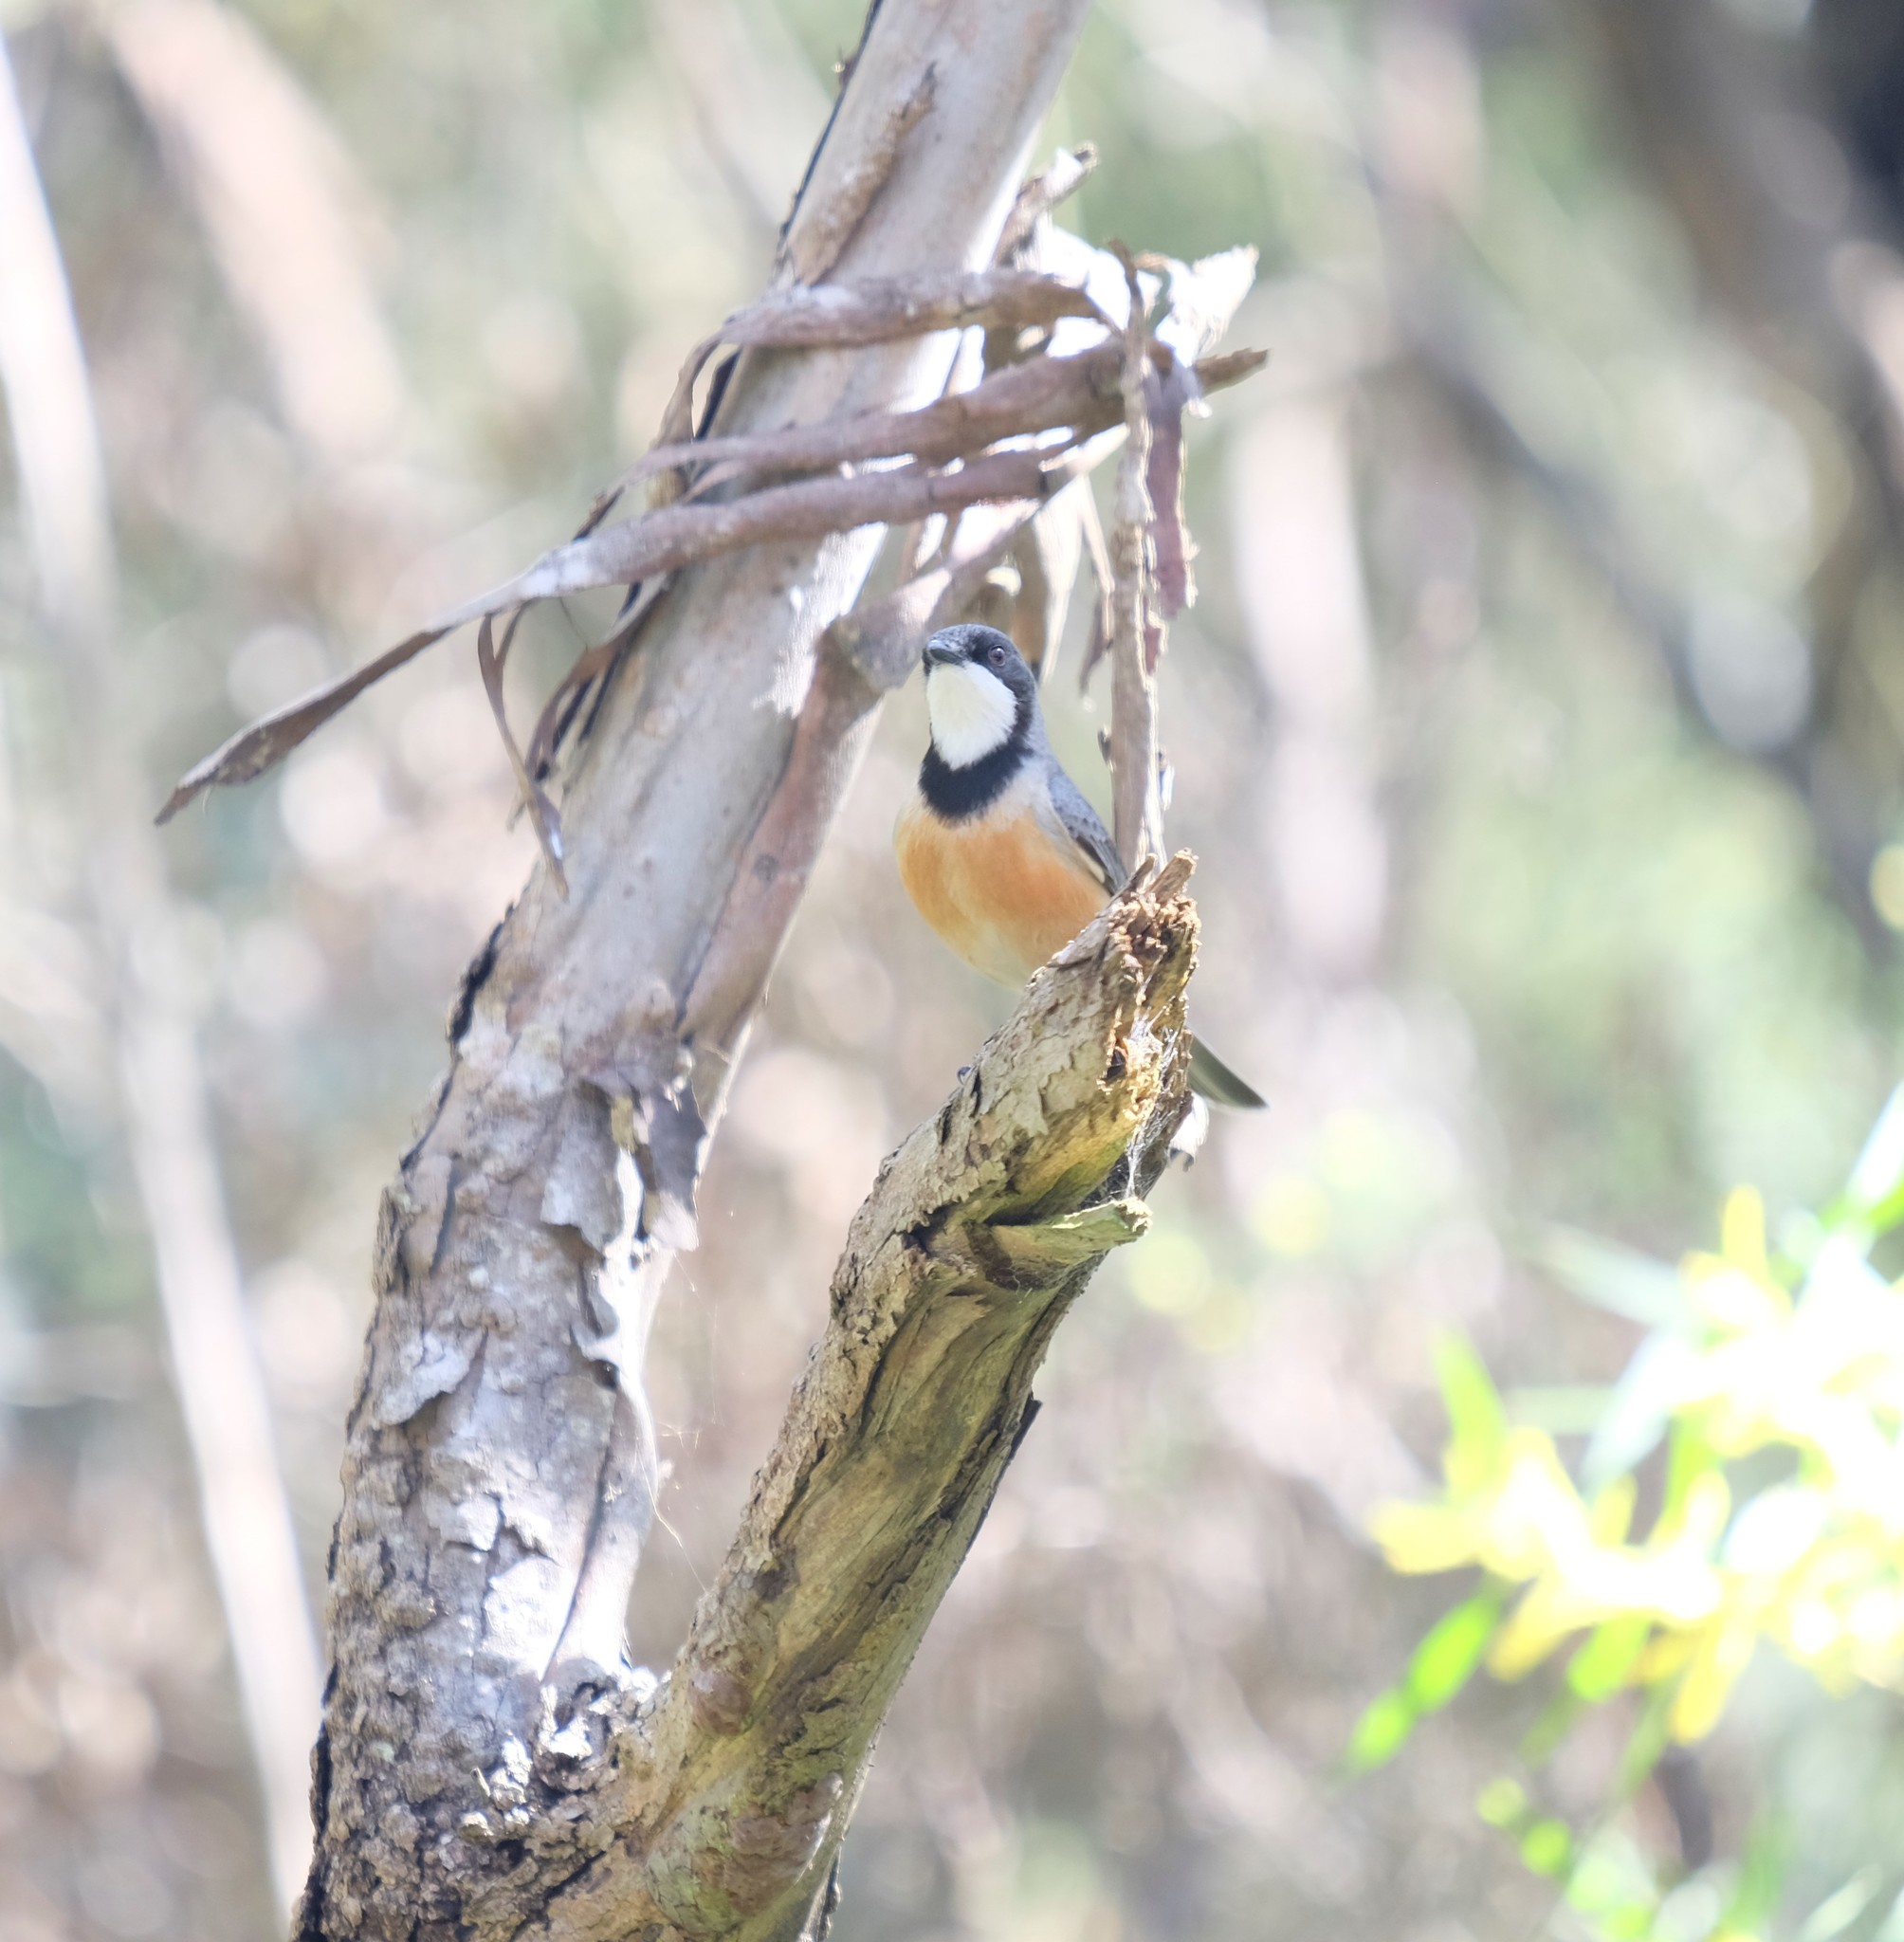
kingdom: Animalia
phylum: Chordata
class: Aves
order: Passeriformes
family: Pachycephalidae
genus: Pachycephala
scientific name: Pachycephala rufiventris
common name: Rufous whistler
